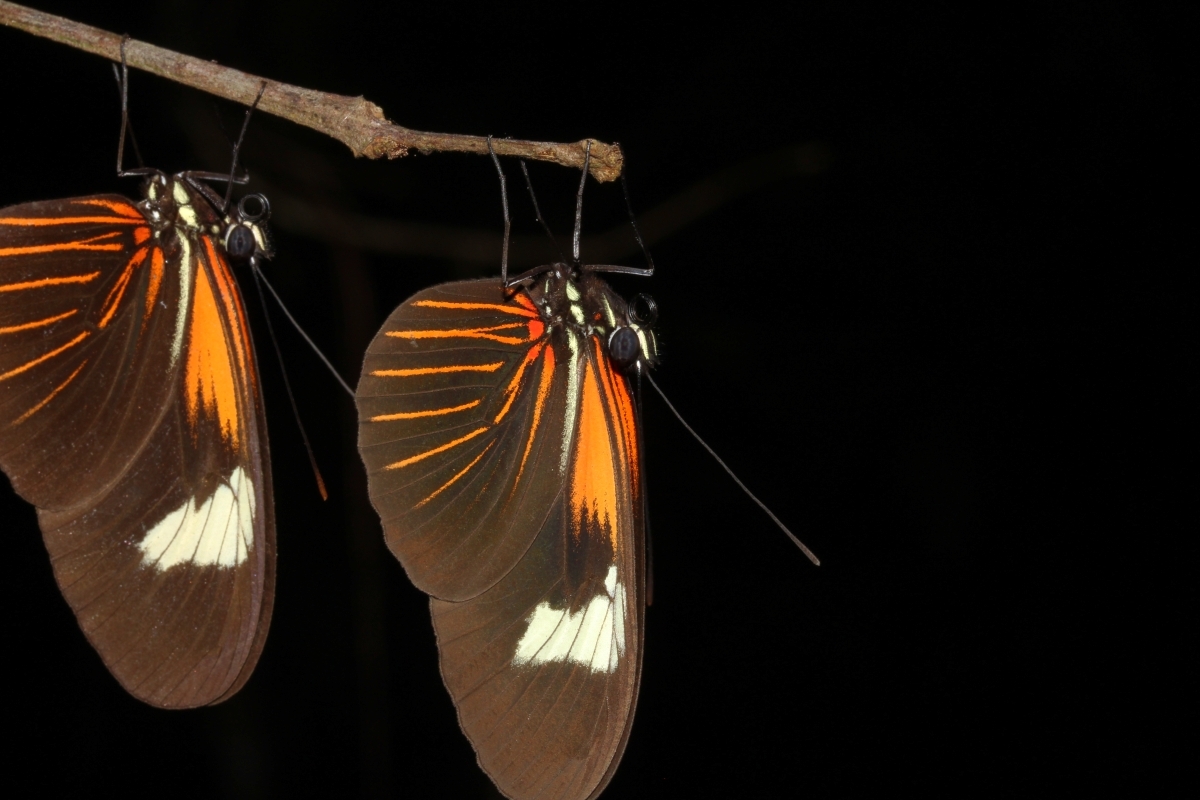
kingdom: Animalia
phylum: Arthropoda
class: Insecta
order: Lepidoptera
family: Nymphalidae
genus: Heliconius
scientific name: Heliconius erato
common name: Common patch longwing
